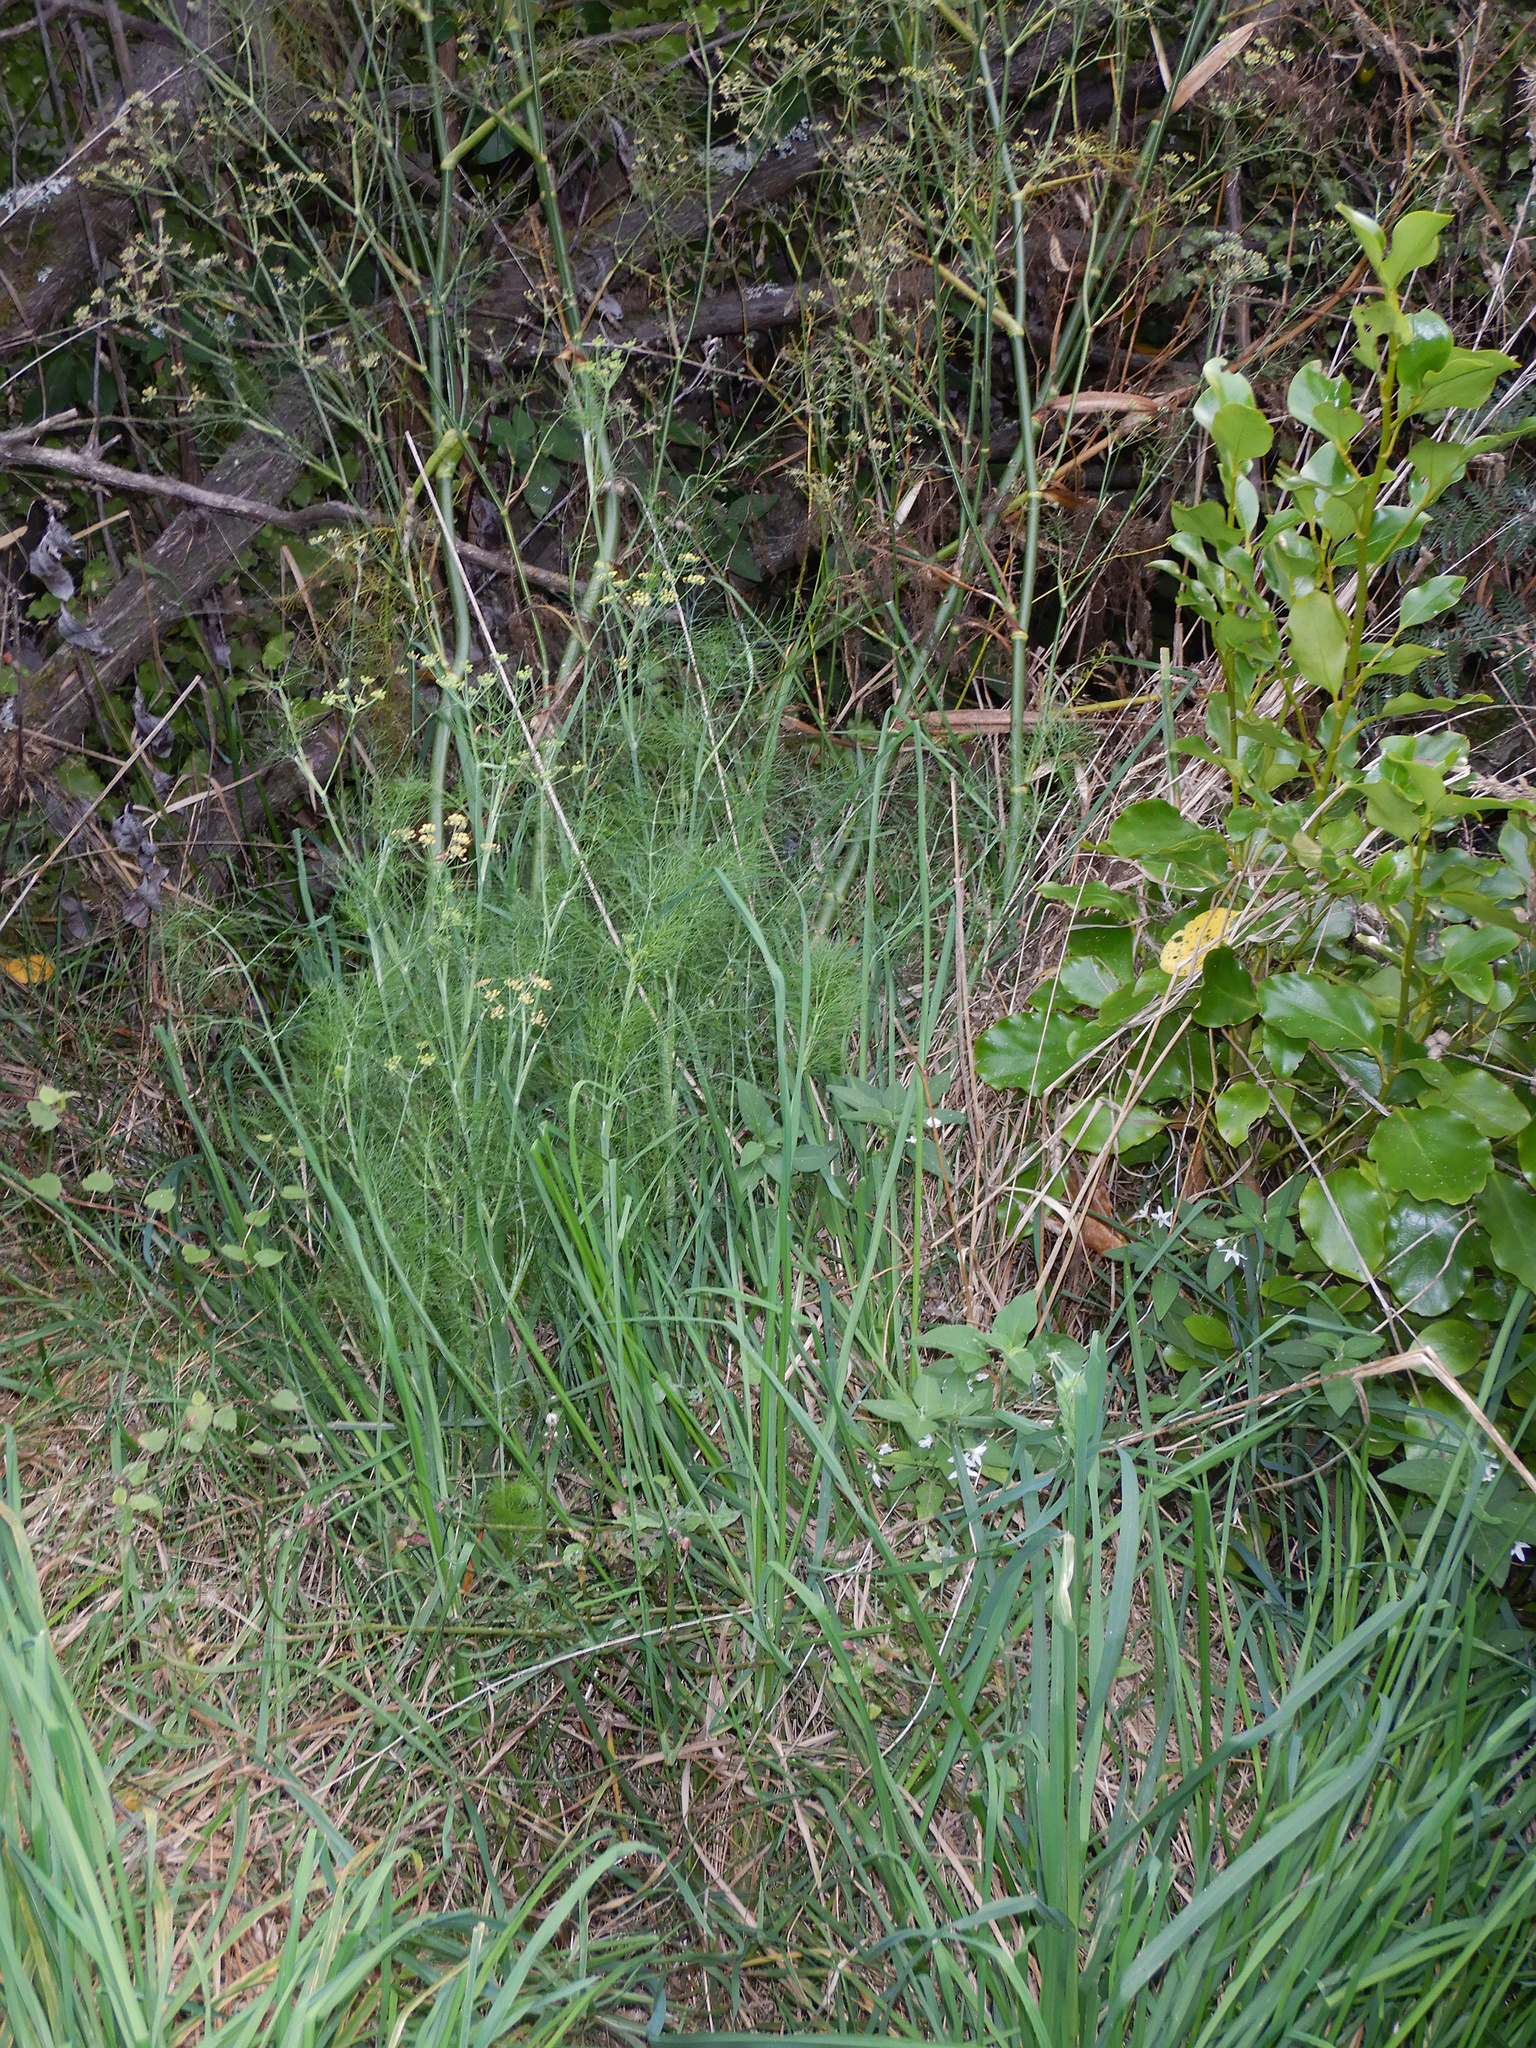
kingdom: Plantae
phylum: Tracheophyta
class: Magnoliopsida
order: Apiales
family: Apiaceae
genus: Foeniculum
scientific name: Foeniculum vulgare
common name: Fennel
